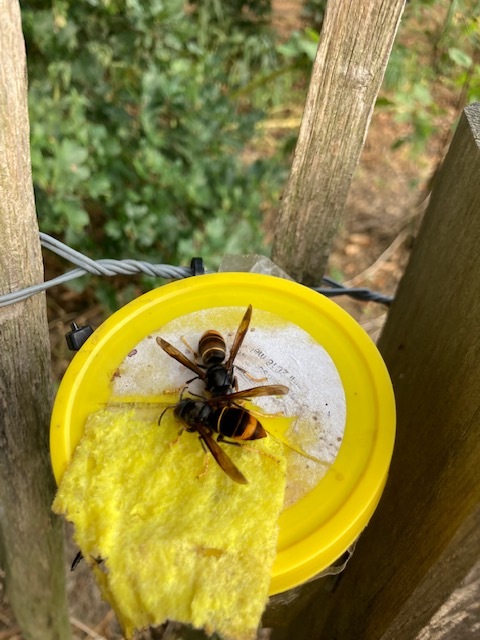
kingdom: Animalia
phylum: Arthropoda
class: Insecta
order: Hymenoptera
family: Vespidae
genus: Vespa
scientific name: Vespa velutina
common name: Asian hornet
